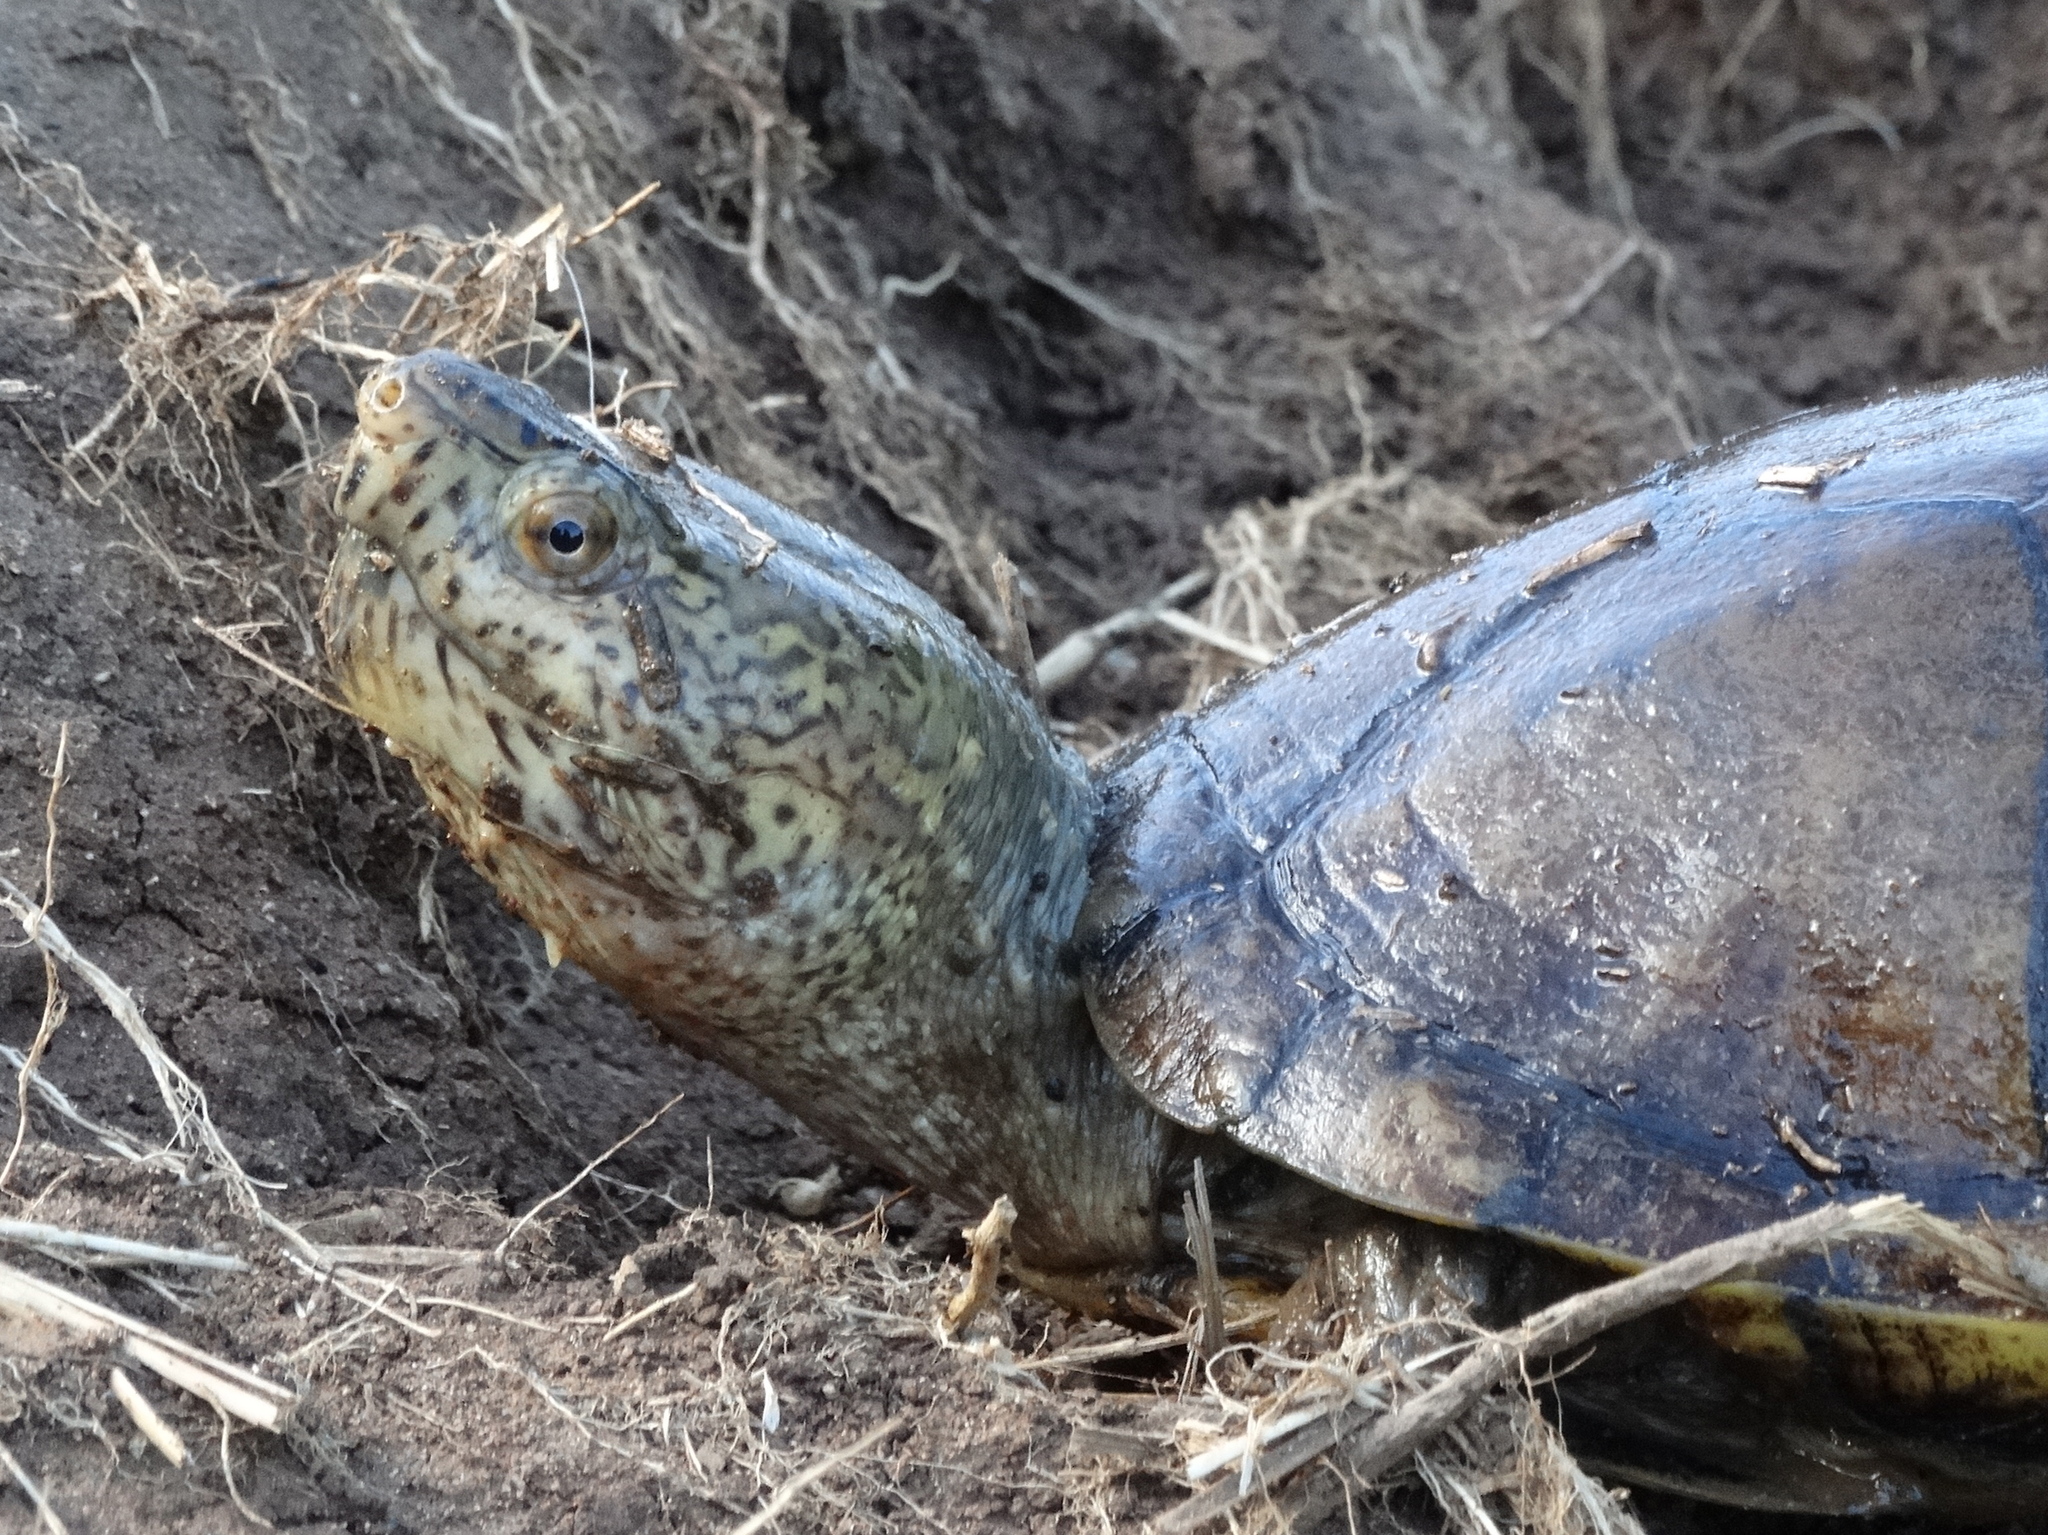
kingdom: Animalia
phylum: Chordata
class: Testudines
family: Kinosternidae
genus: Kinosternon
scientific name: Kinosternon integrum
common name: Mexican mud turtle
